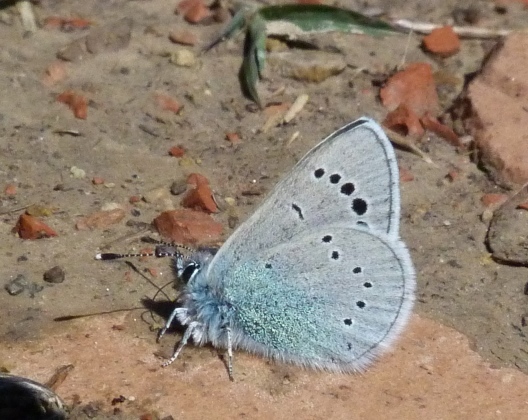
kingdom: Animalia
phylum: Arthropoda
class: Insecta
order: Lepidoptera
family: Lycaenidae
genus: Glaucopsyche
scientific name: Glaucopsyche alexis
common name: Green-underside blue
